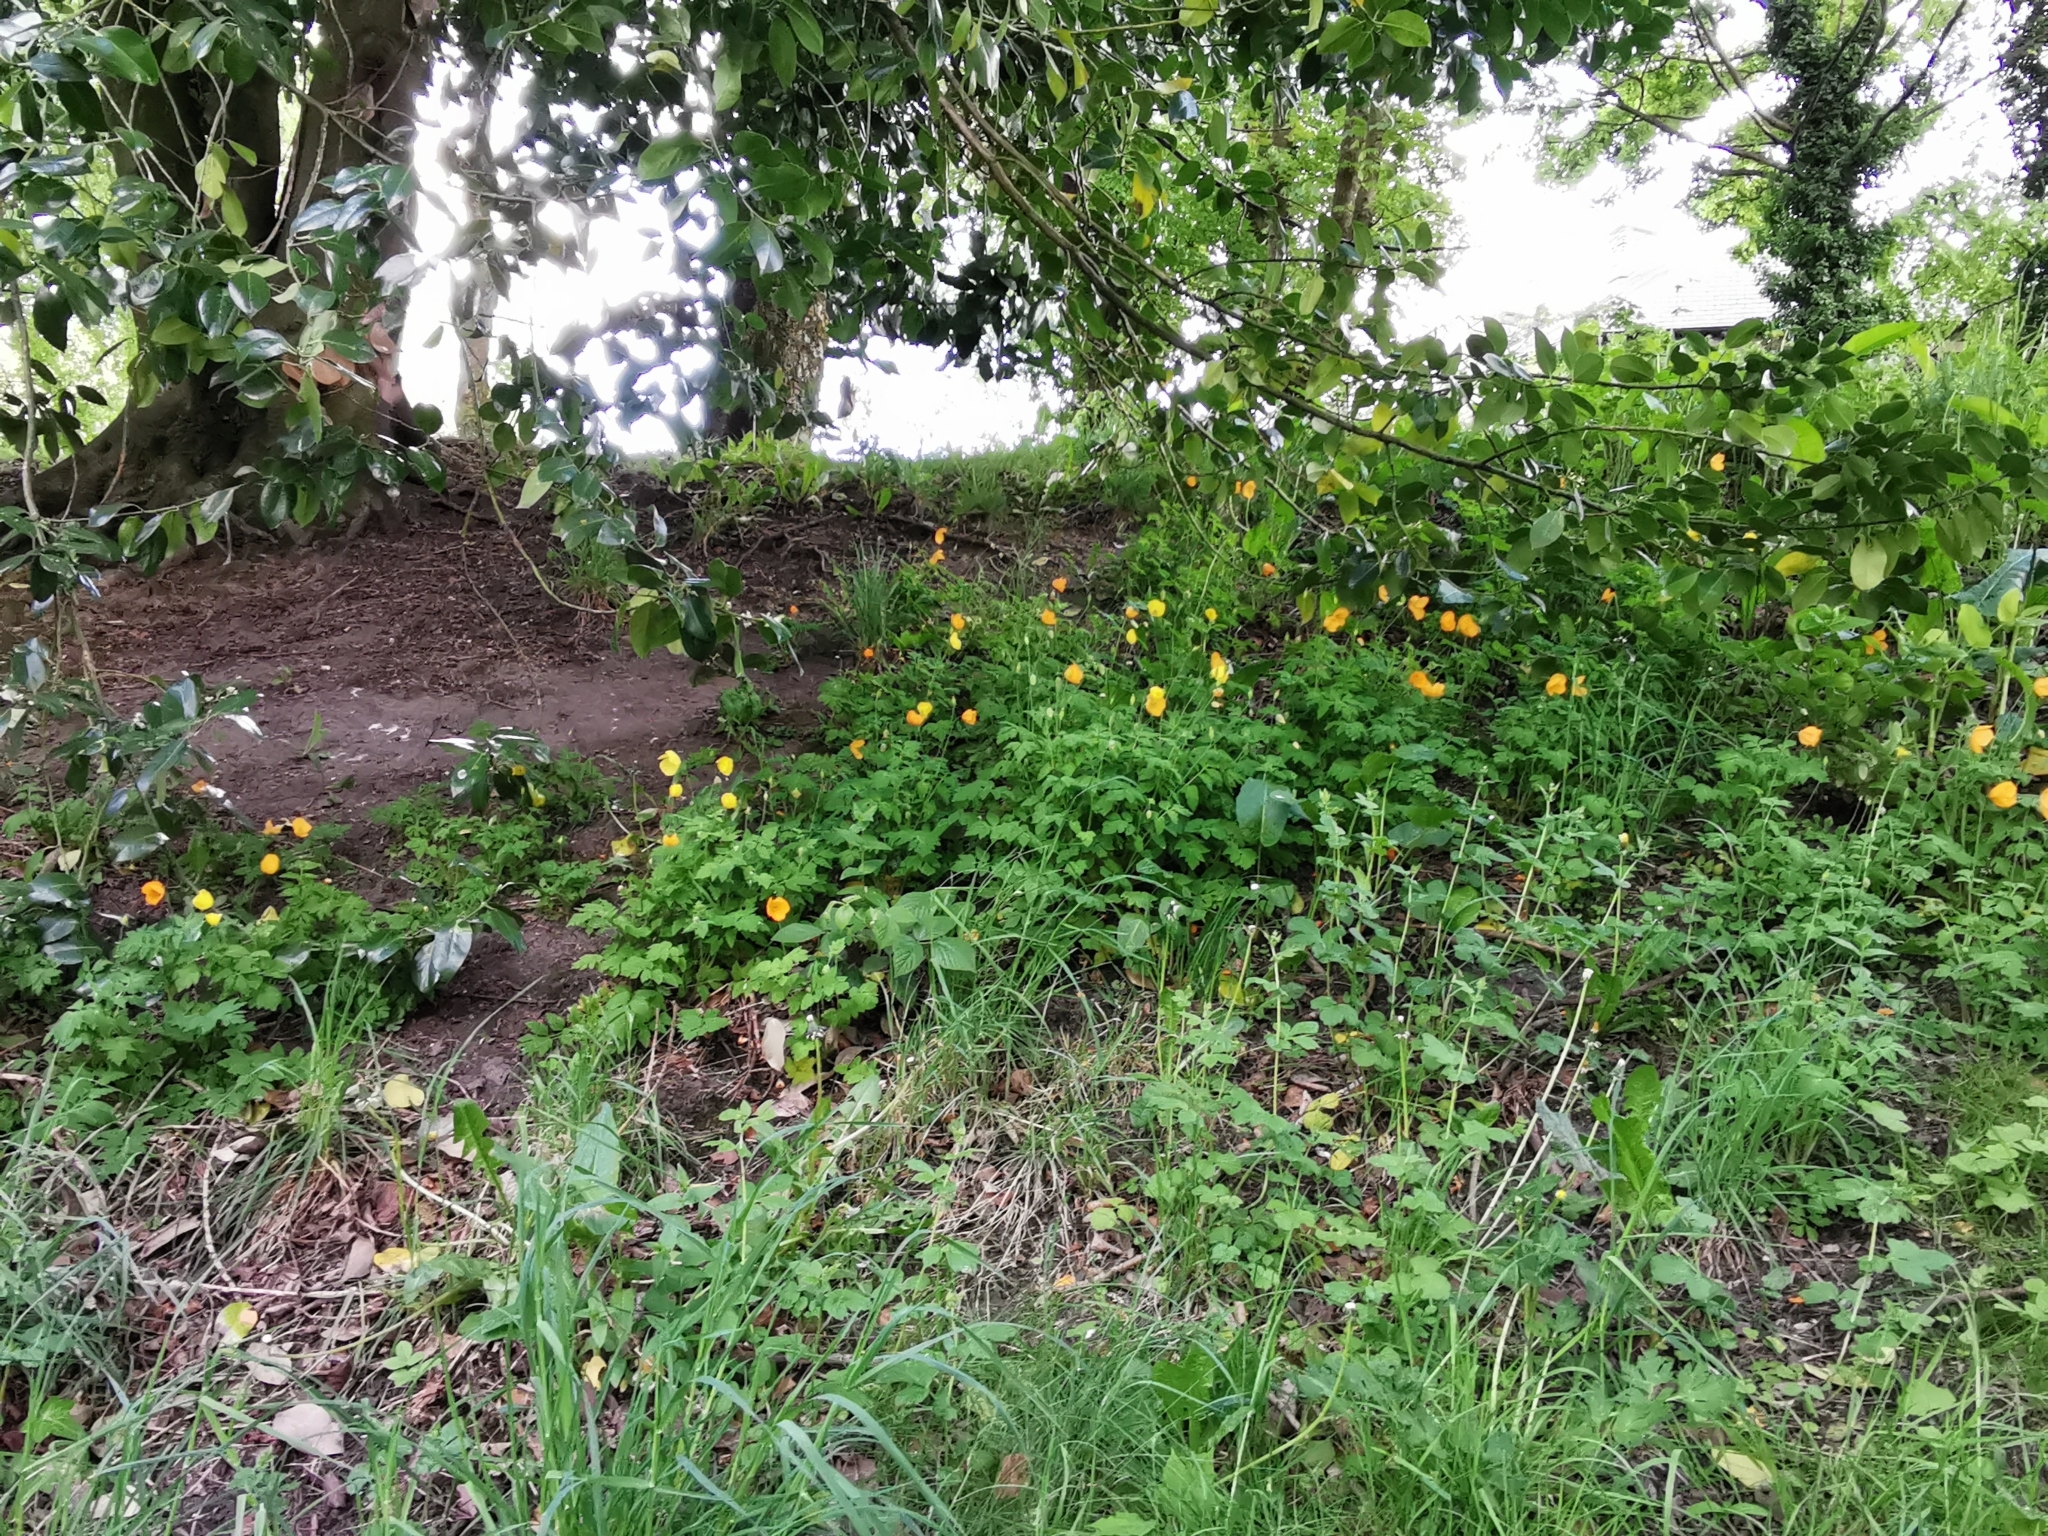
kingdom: Plantae
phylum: Tracheophyta
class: Magnoliopsida
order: Ranunculales
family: Papaveraceae
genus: Papaver
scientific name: Papaver cambricum
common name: Poppy
